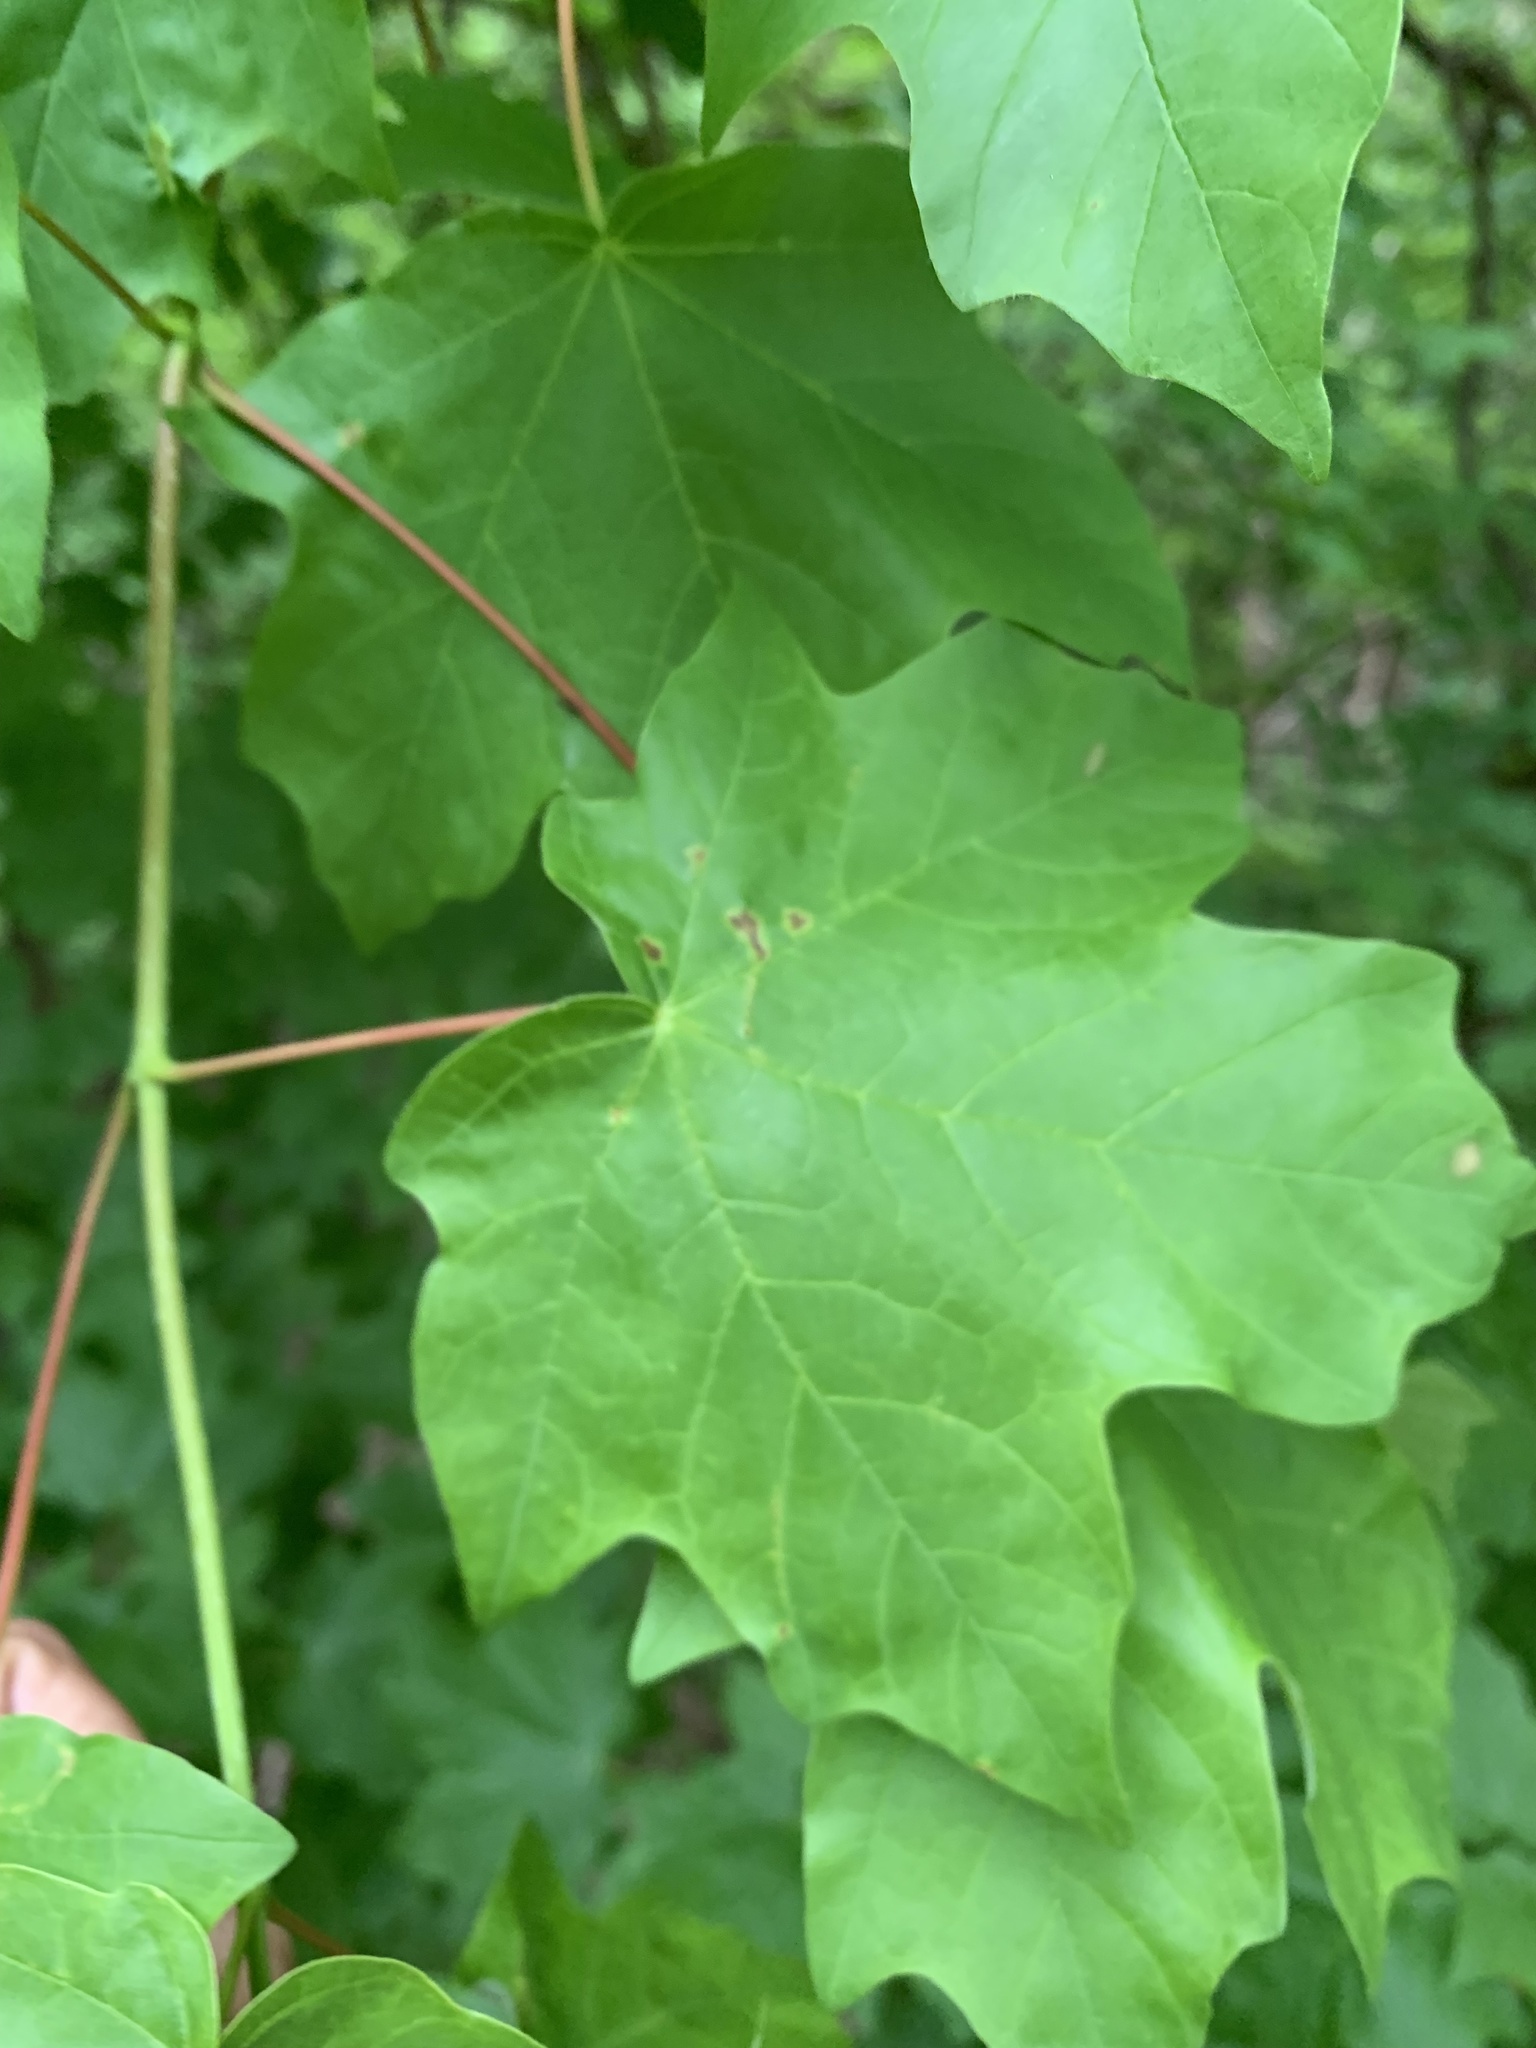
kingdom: Plantae
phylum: Tracheophyta
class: Magnoliopsida
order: Sapindales
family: Sapindaceae
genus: Acer
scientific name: Acer floridanum
